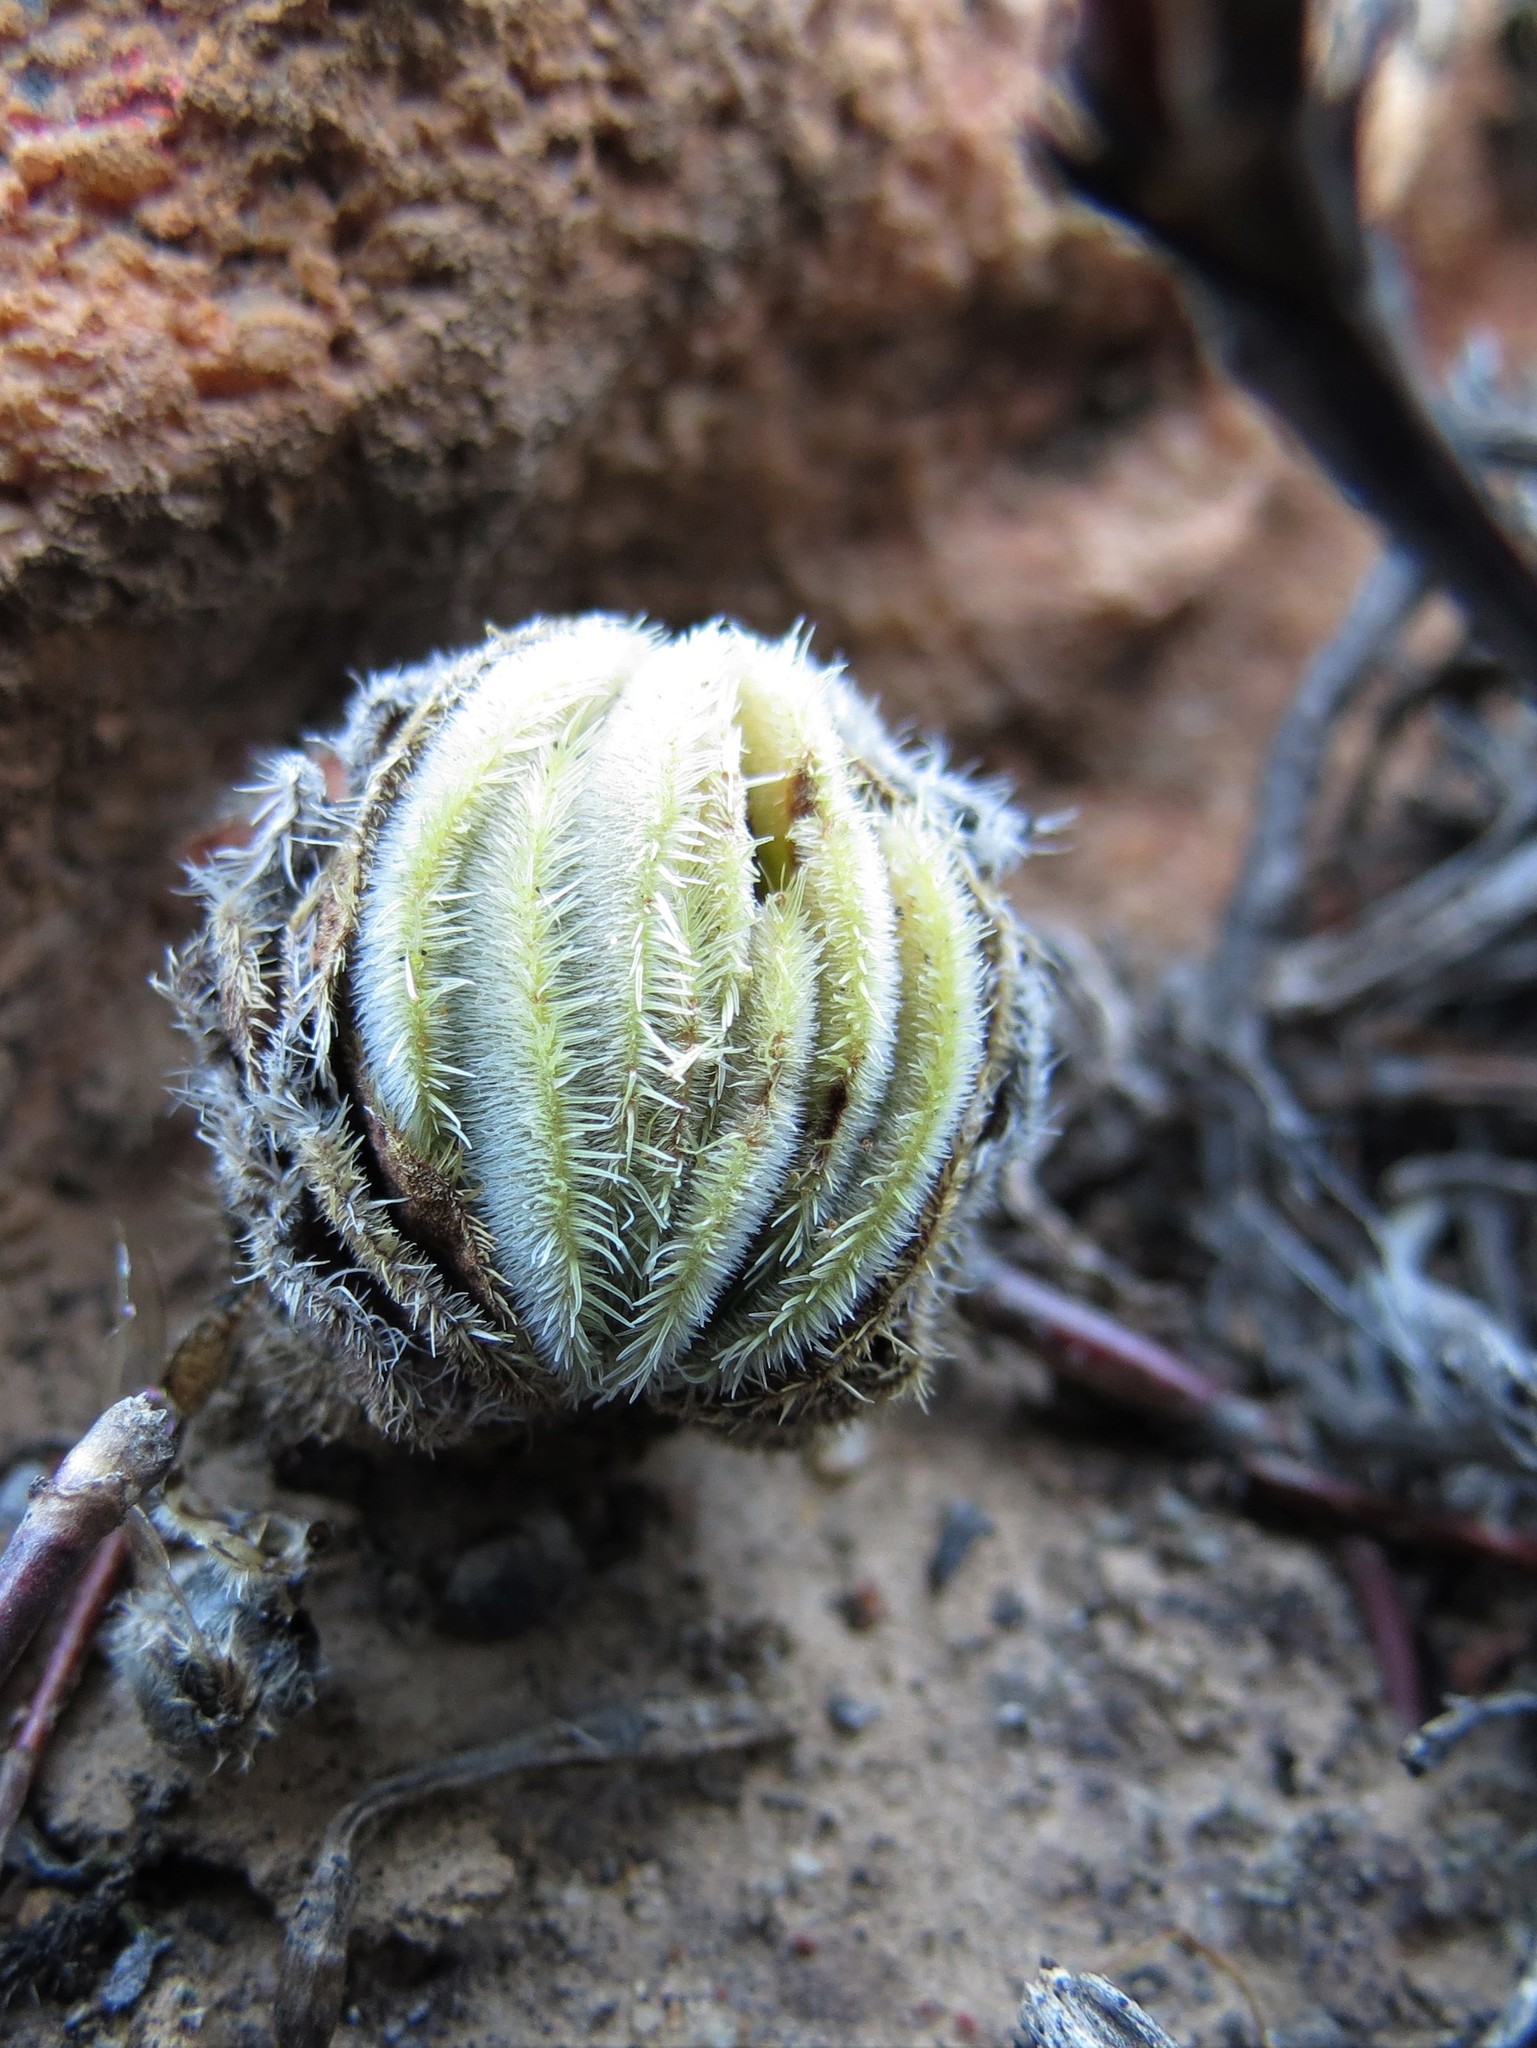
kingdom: Plantae
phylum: Tracheophyta
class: Magnoliopsida
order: Saxifragales
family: Crassulaceae
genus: Crassula
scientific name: Crassula tomentosa
